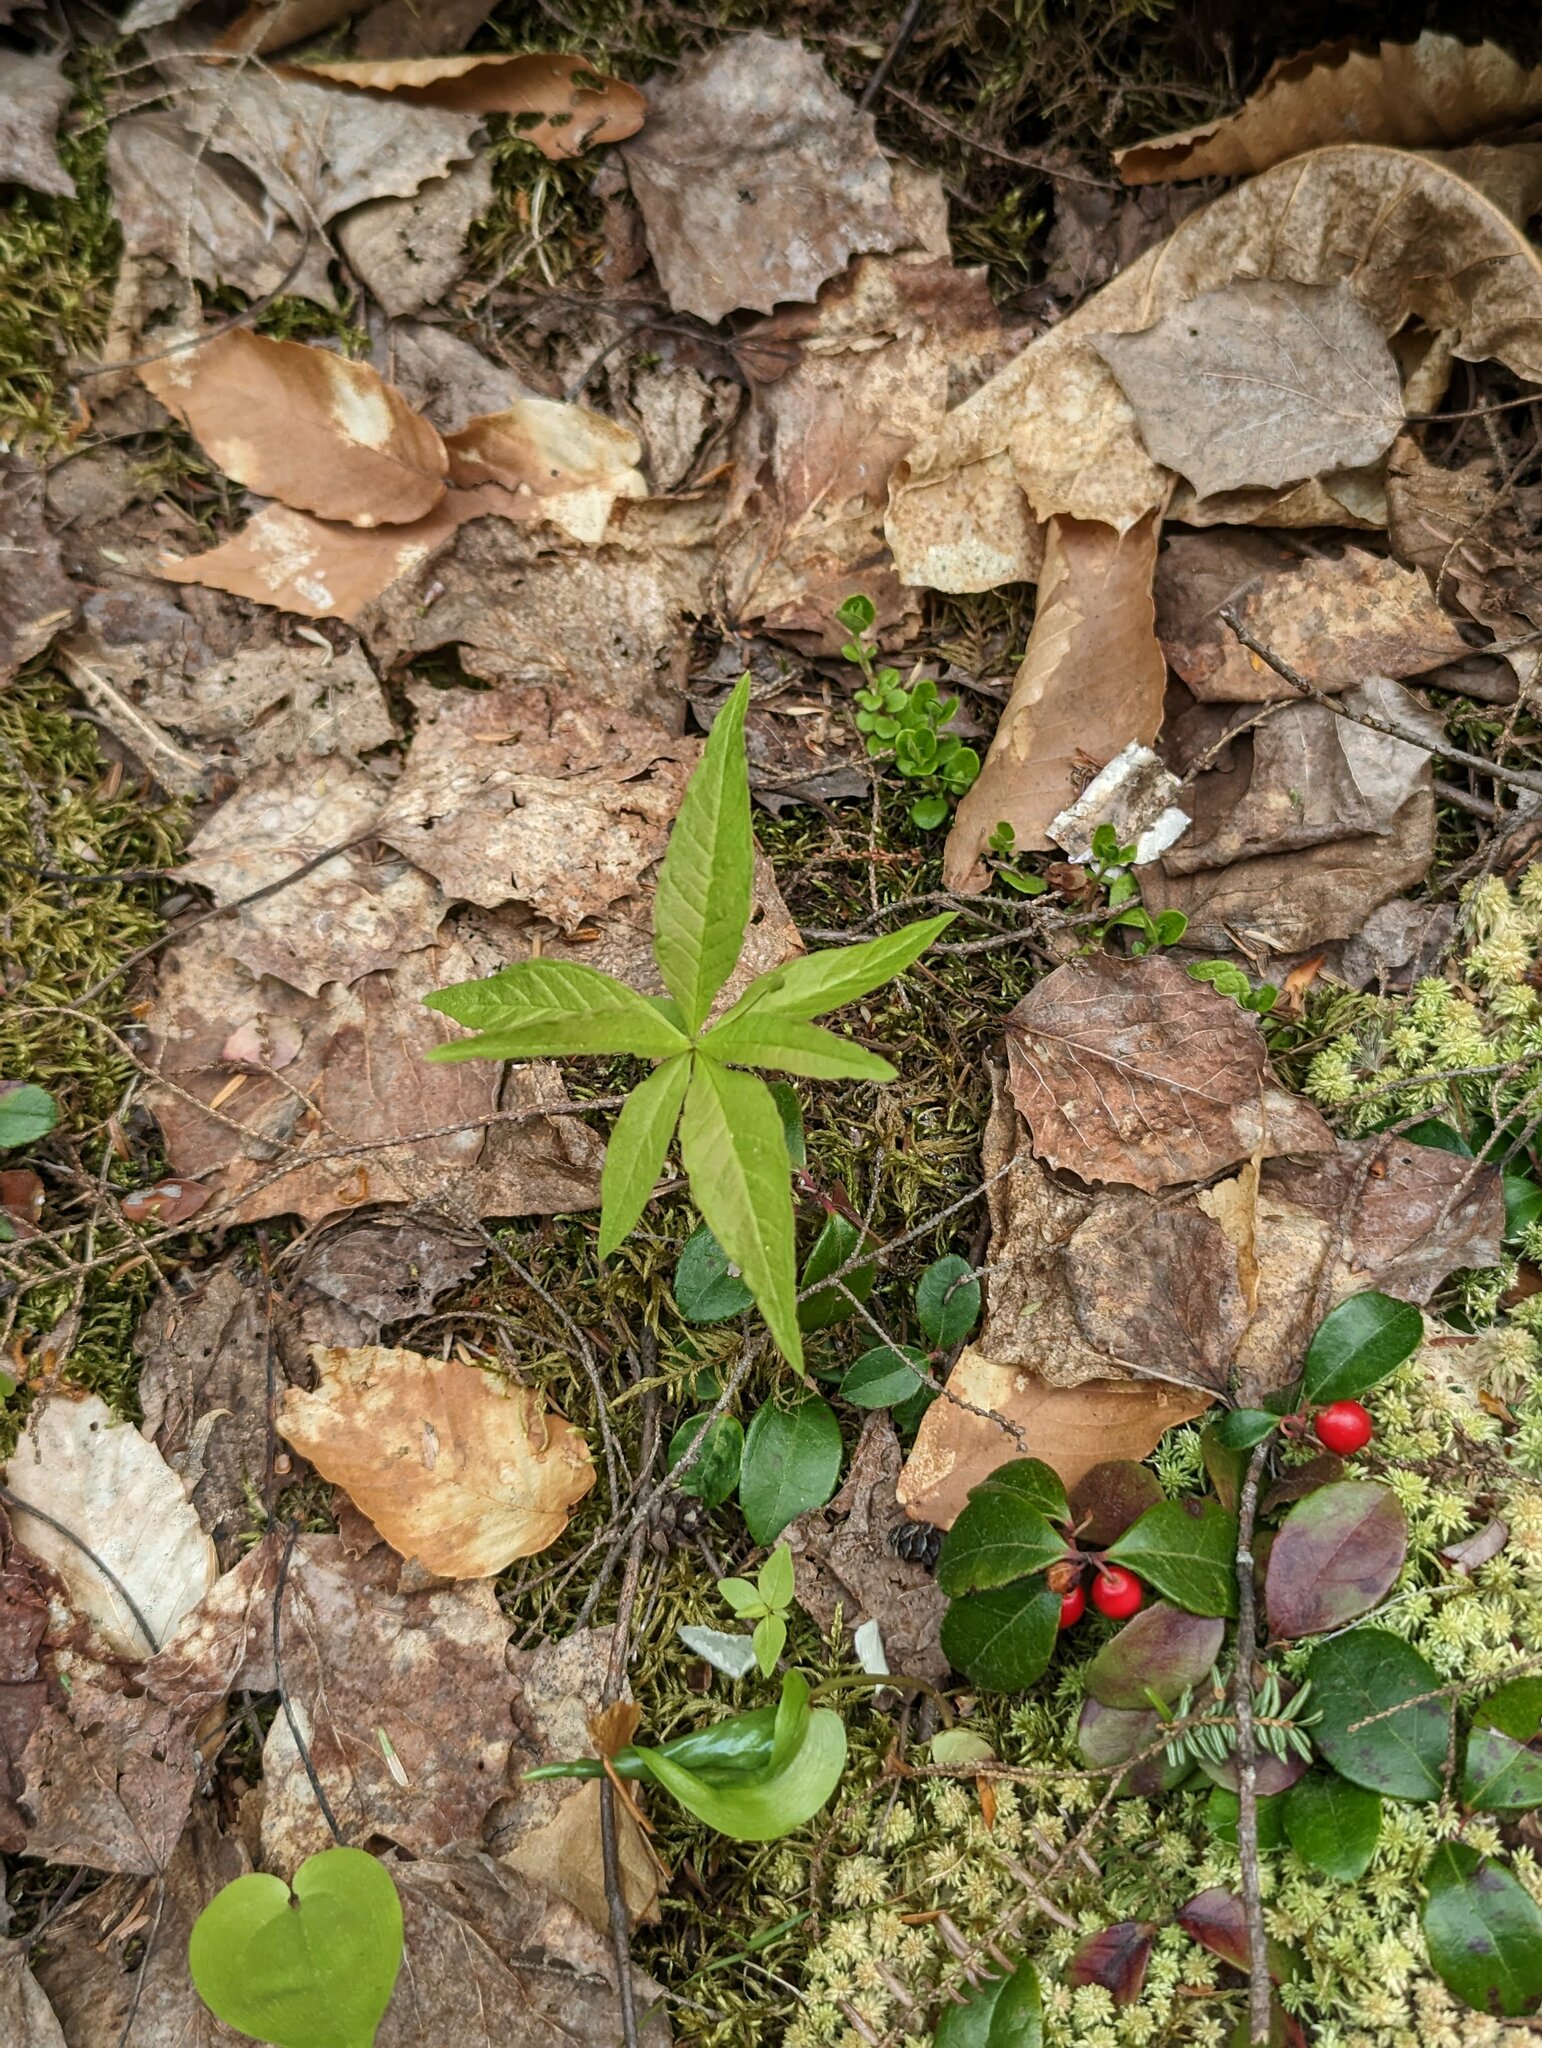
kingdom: Plantae
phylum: Tracheophyta
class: Magnoliopsida
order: Ericales
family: Primulaceae
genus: Lysimachia
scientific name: Lysimachia borealis
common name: American starflower
